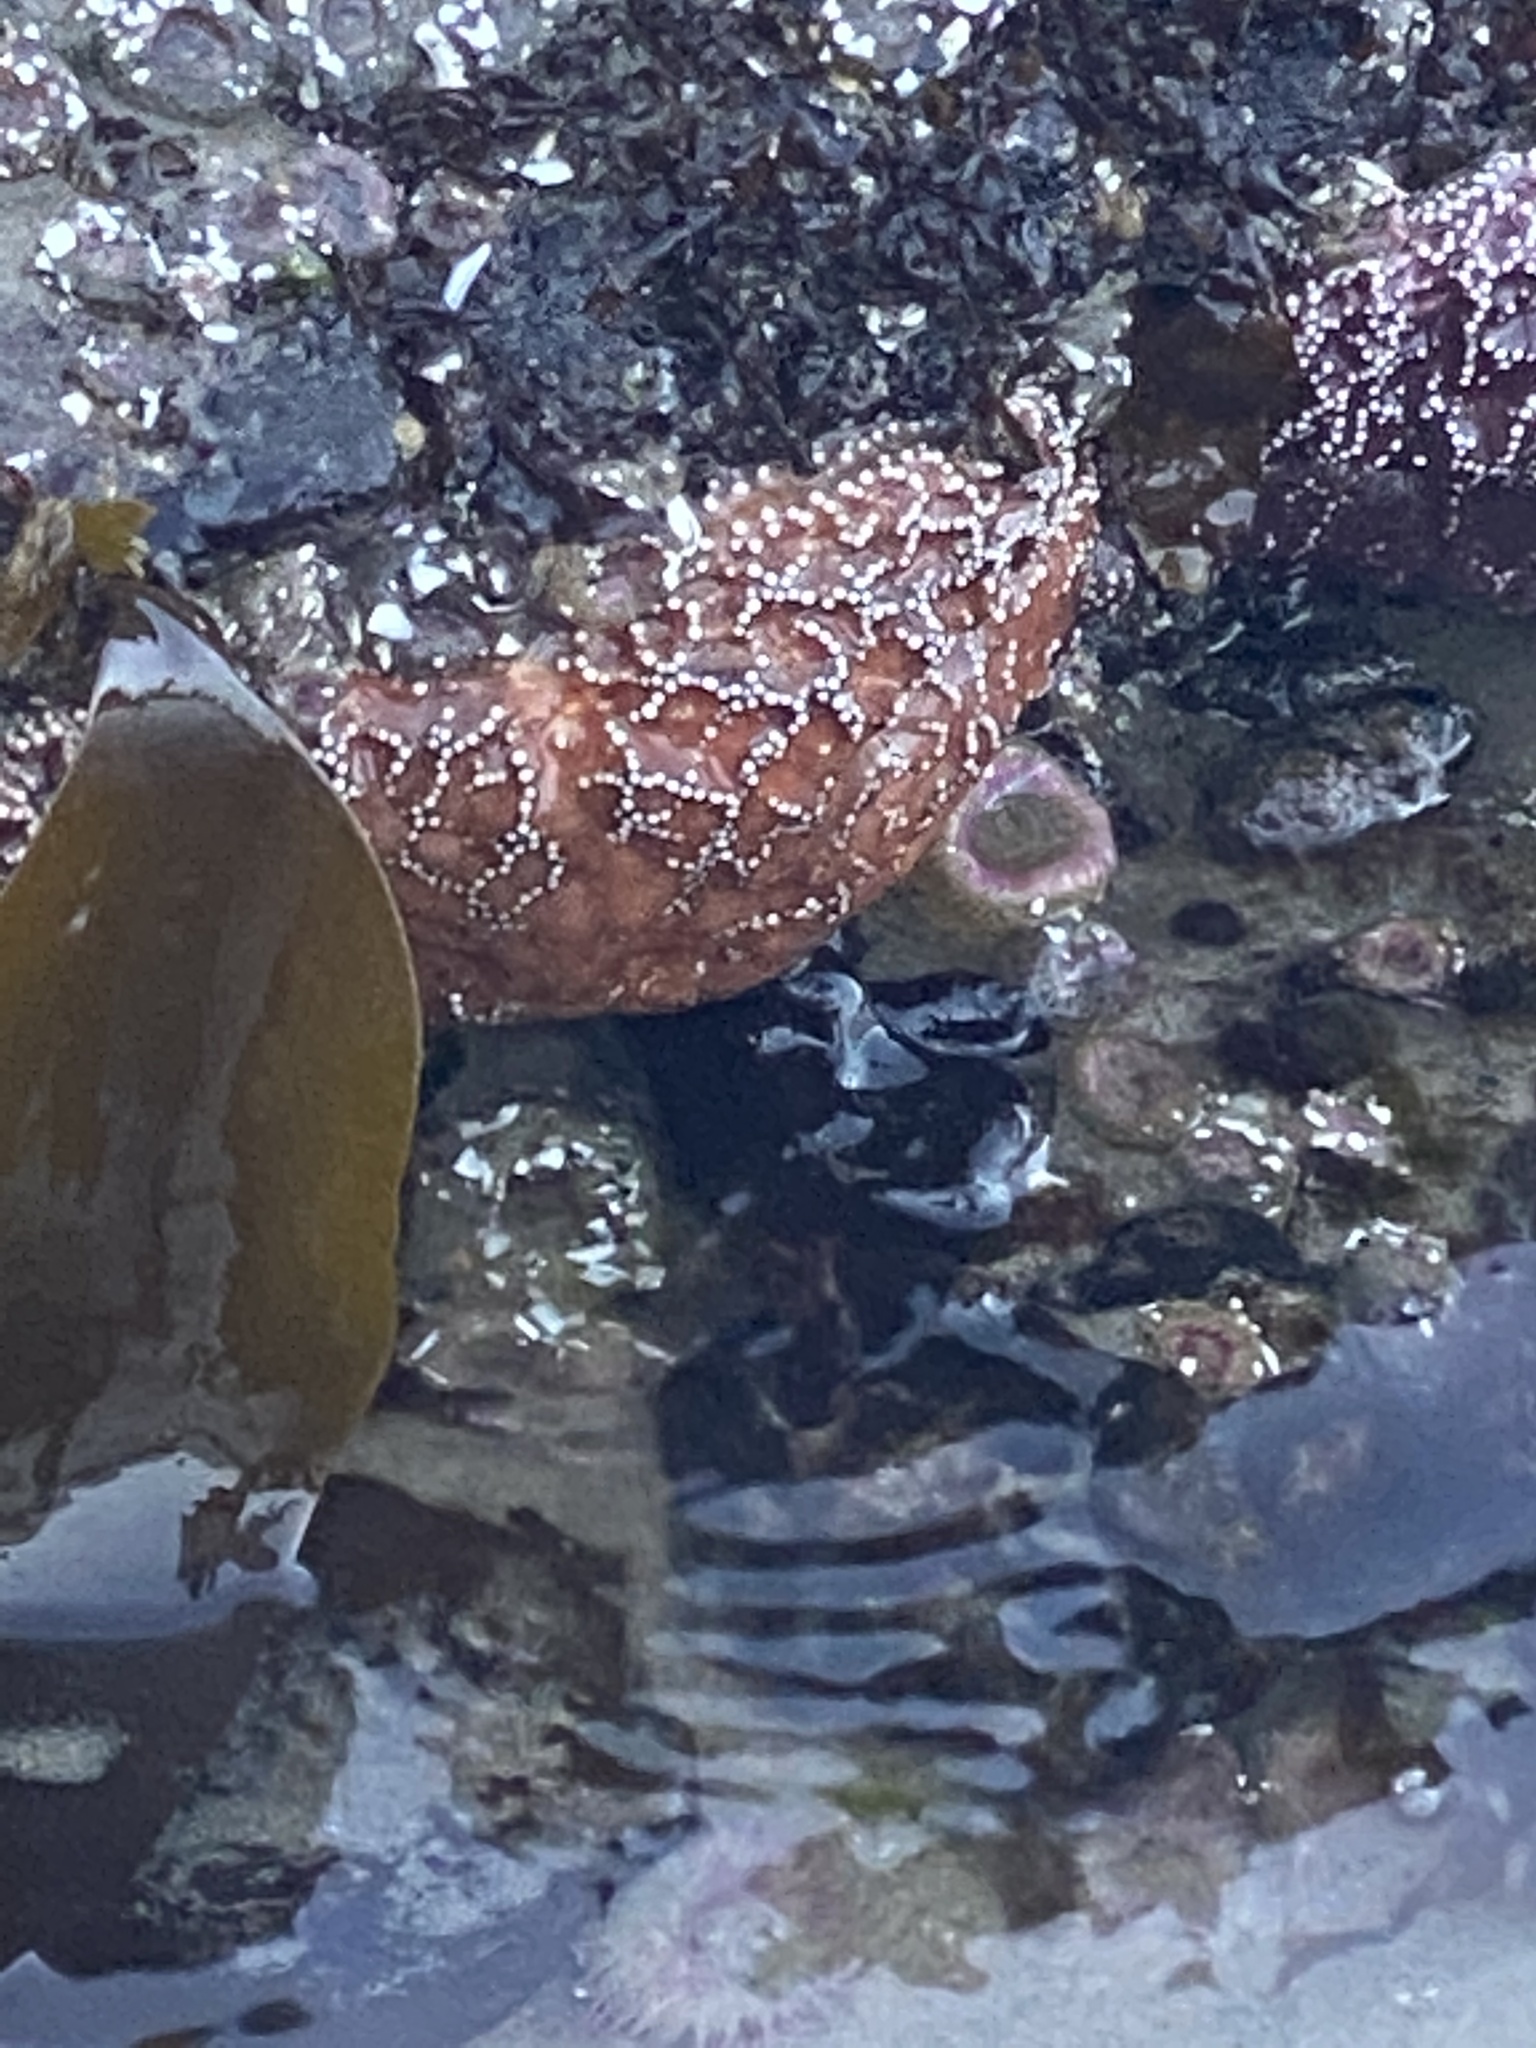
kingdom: Animalia
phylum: Echinodermata
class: Asteroidea
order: Forcipulatida
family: Asteriidae
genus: Pisaster
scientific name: Pisaster ochraceus
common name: Ochre stars
